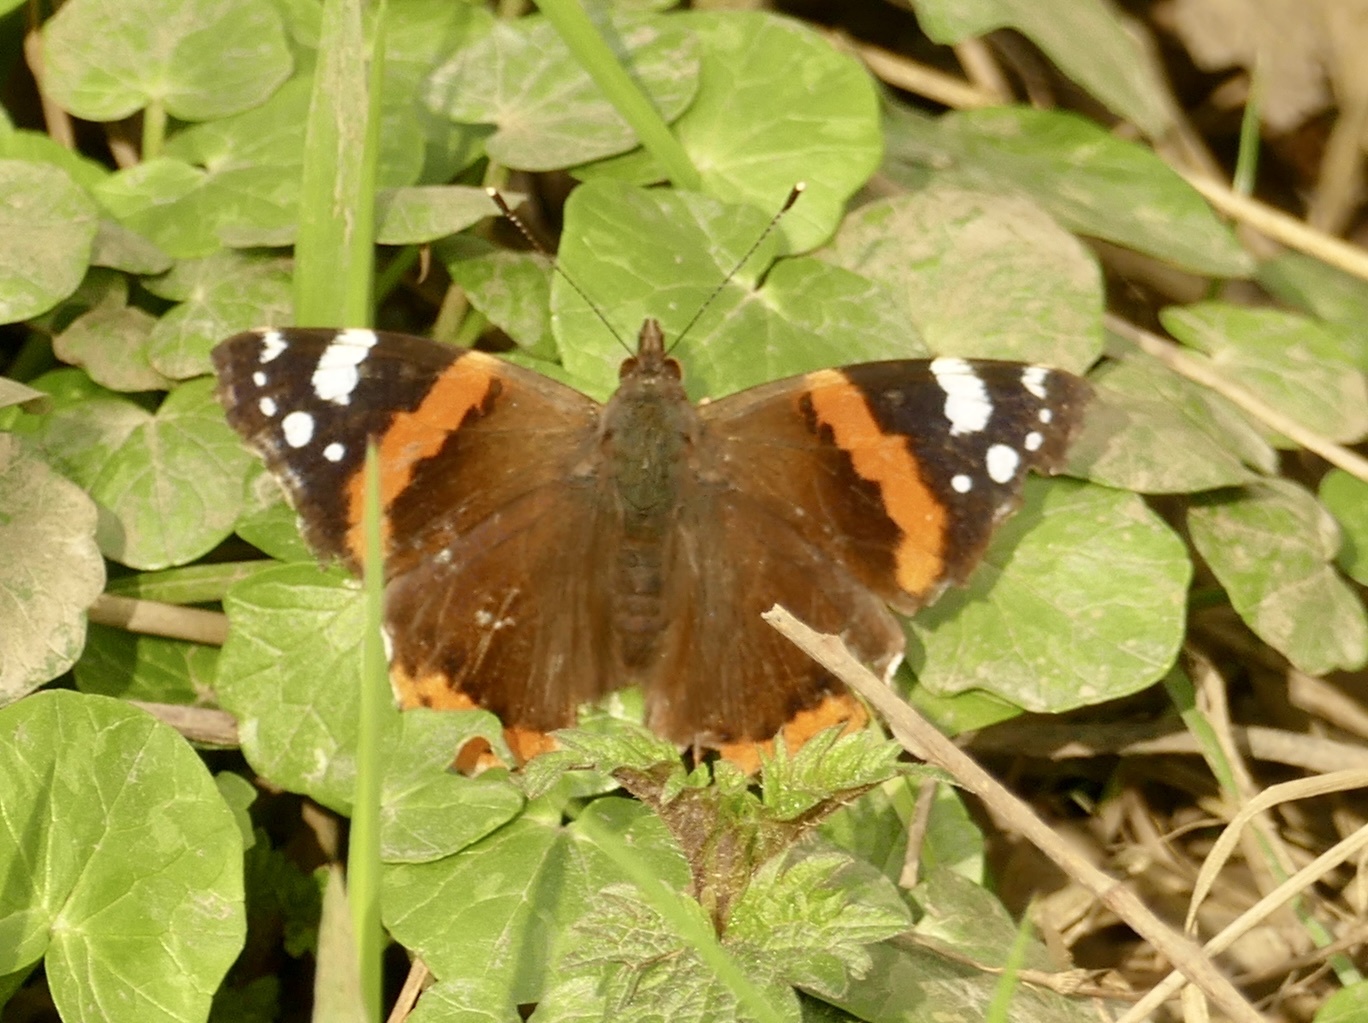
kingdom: Animalia
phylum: Arthropoda
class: Insecta
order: Lepidoptera
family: Nymphalidae
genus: Vanessa
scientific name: Vanessa atalanta
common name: Red admiral
